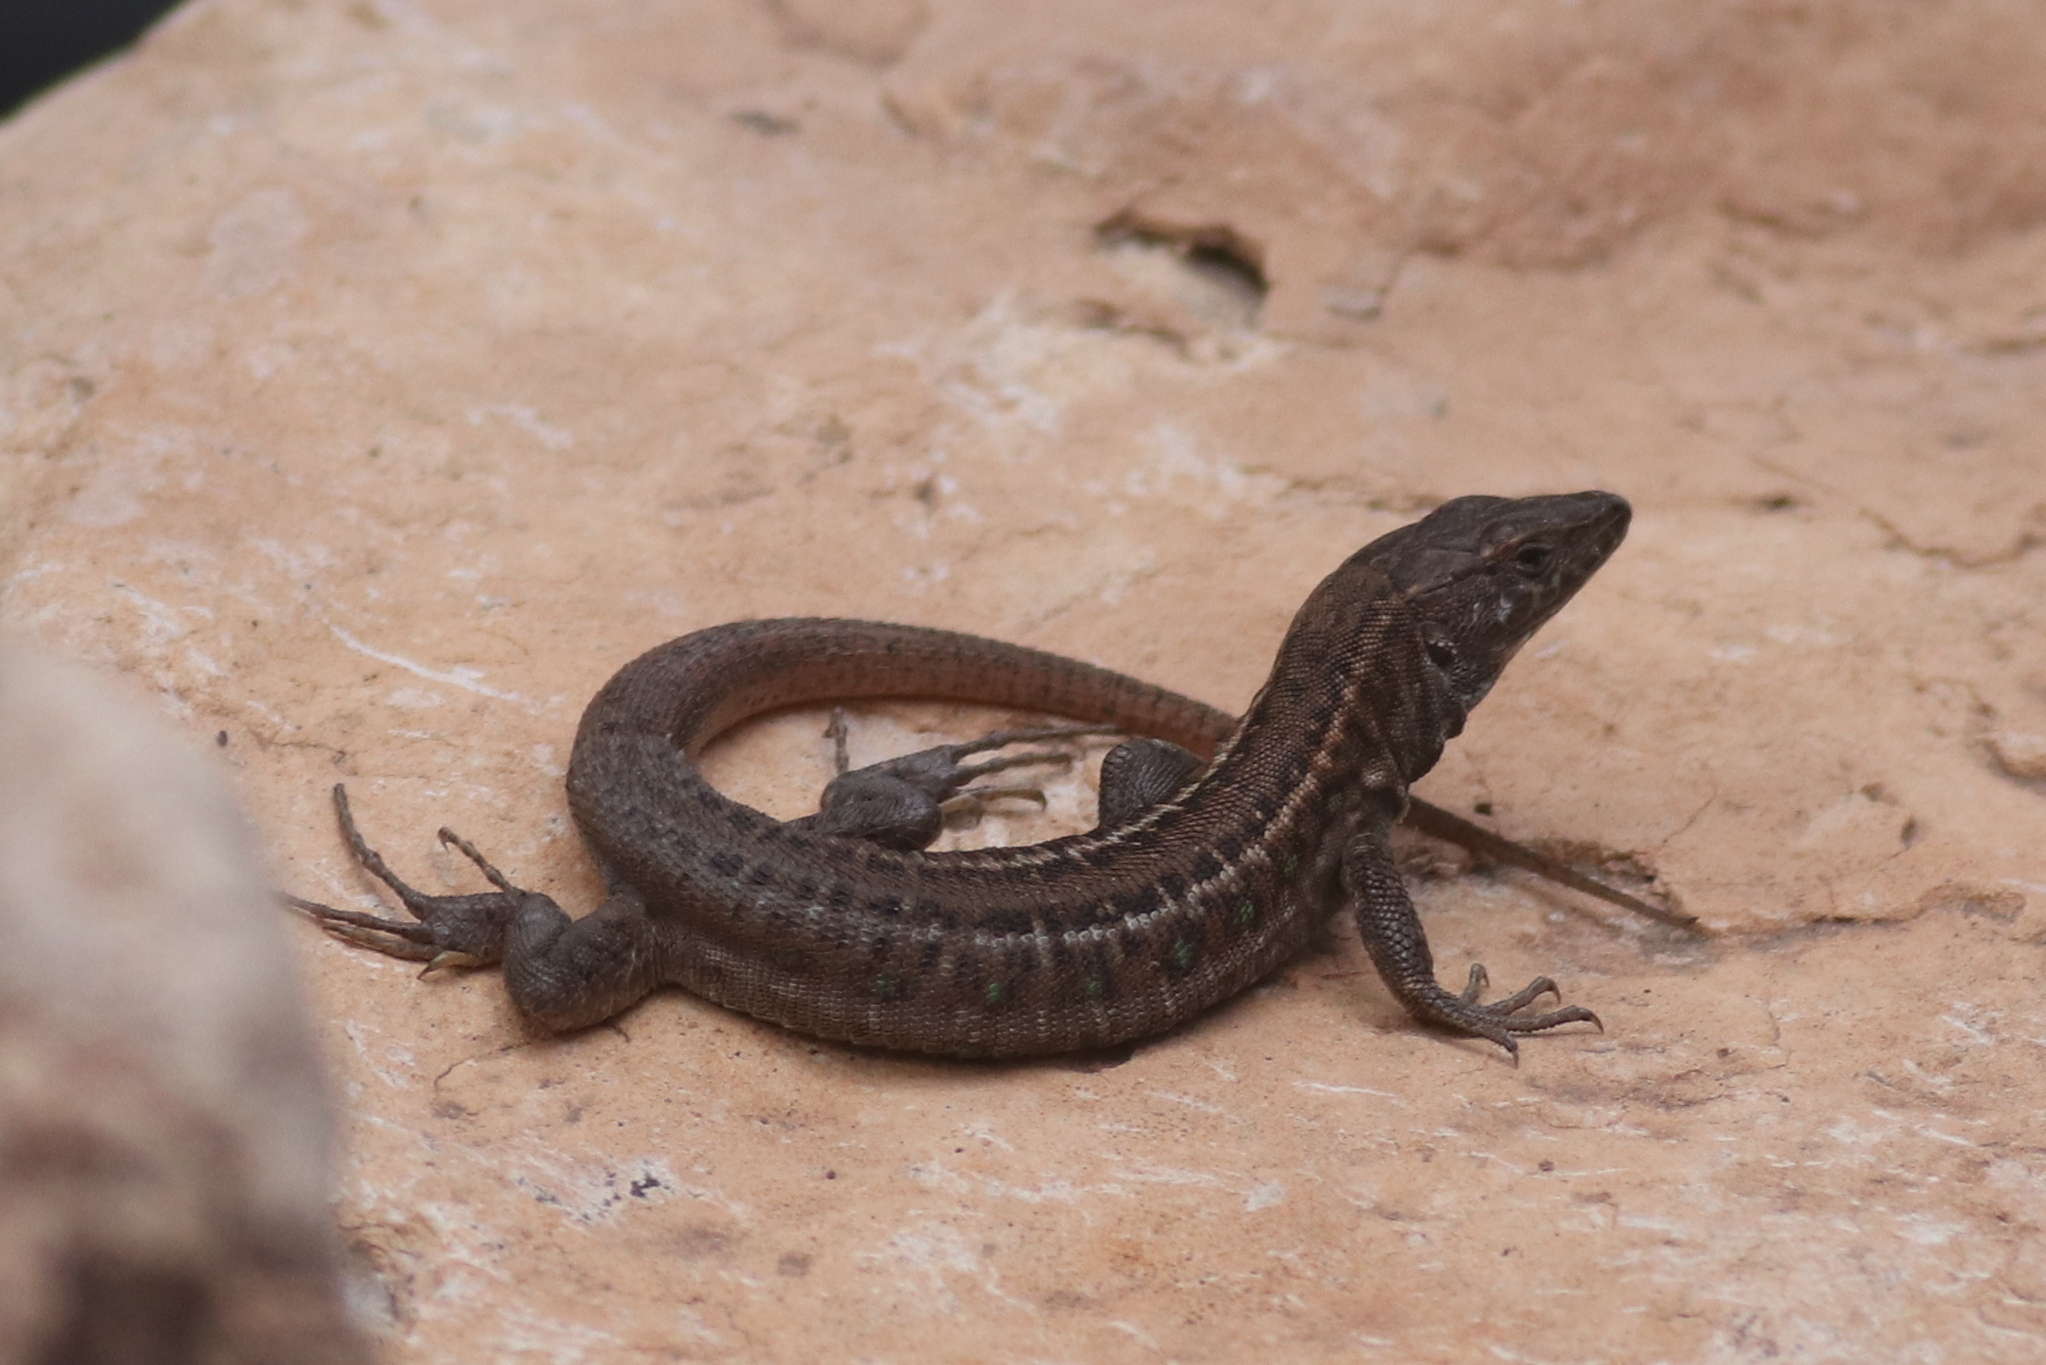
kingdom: Animalia
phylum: Chordata
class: Squamata
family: Lacertidae
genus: Gallotia
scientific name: Gallotia atlantica
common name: Atlantic lizard
